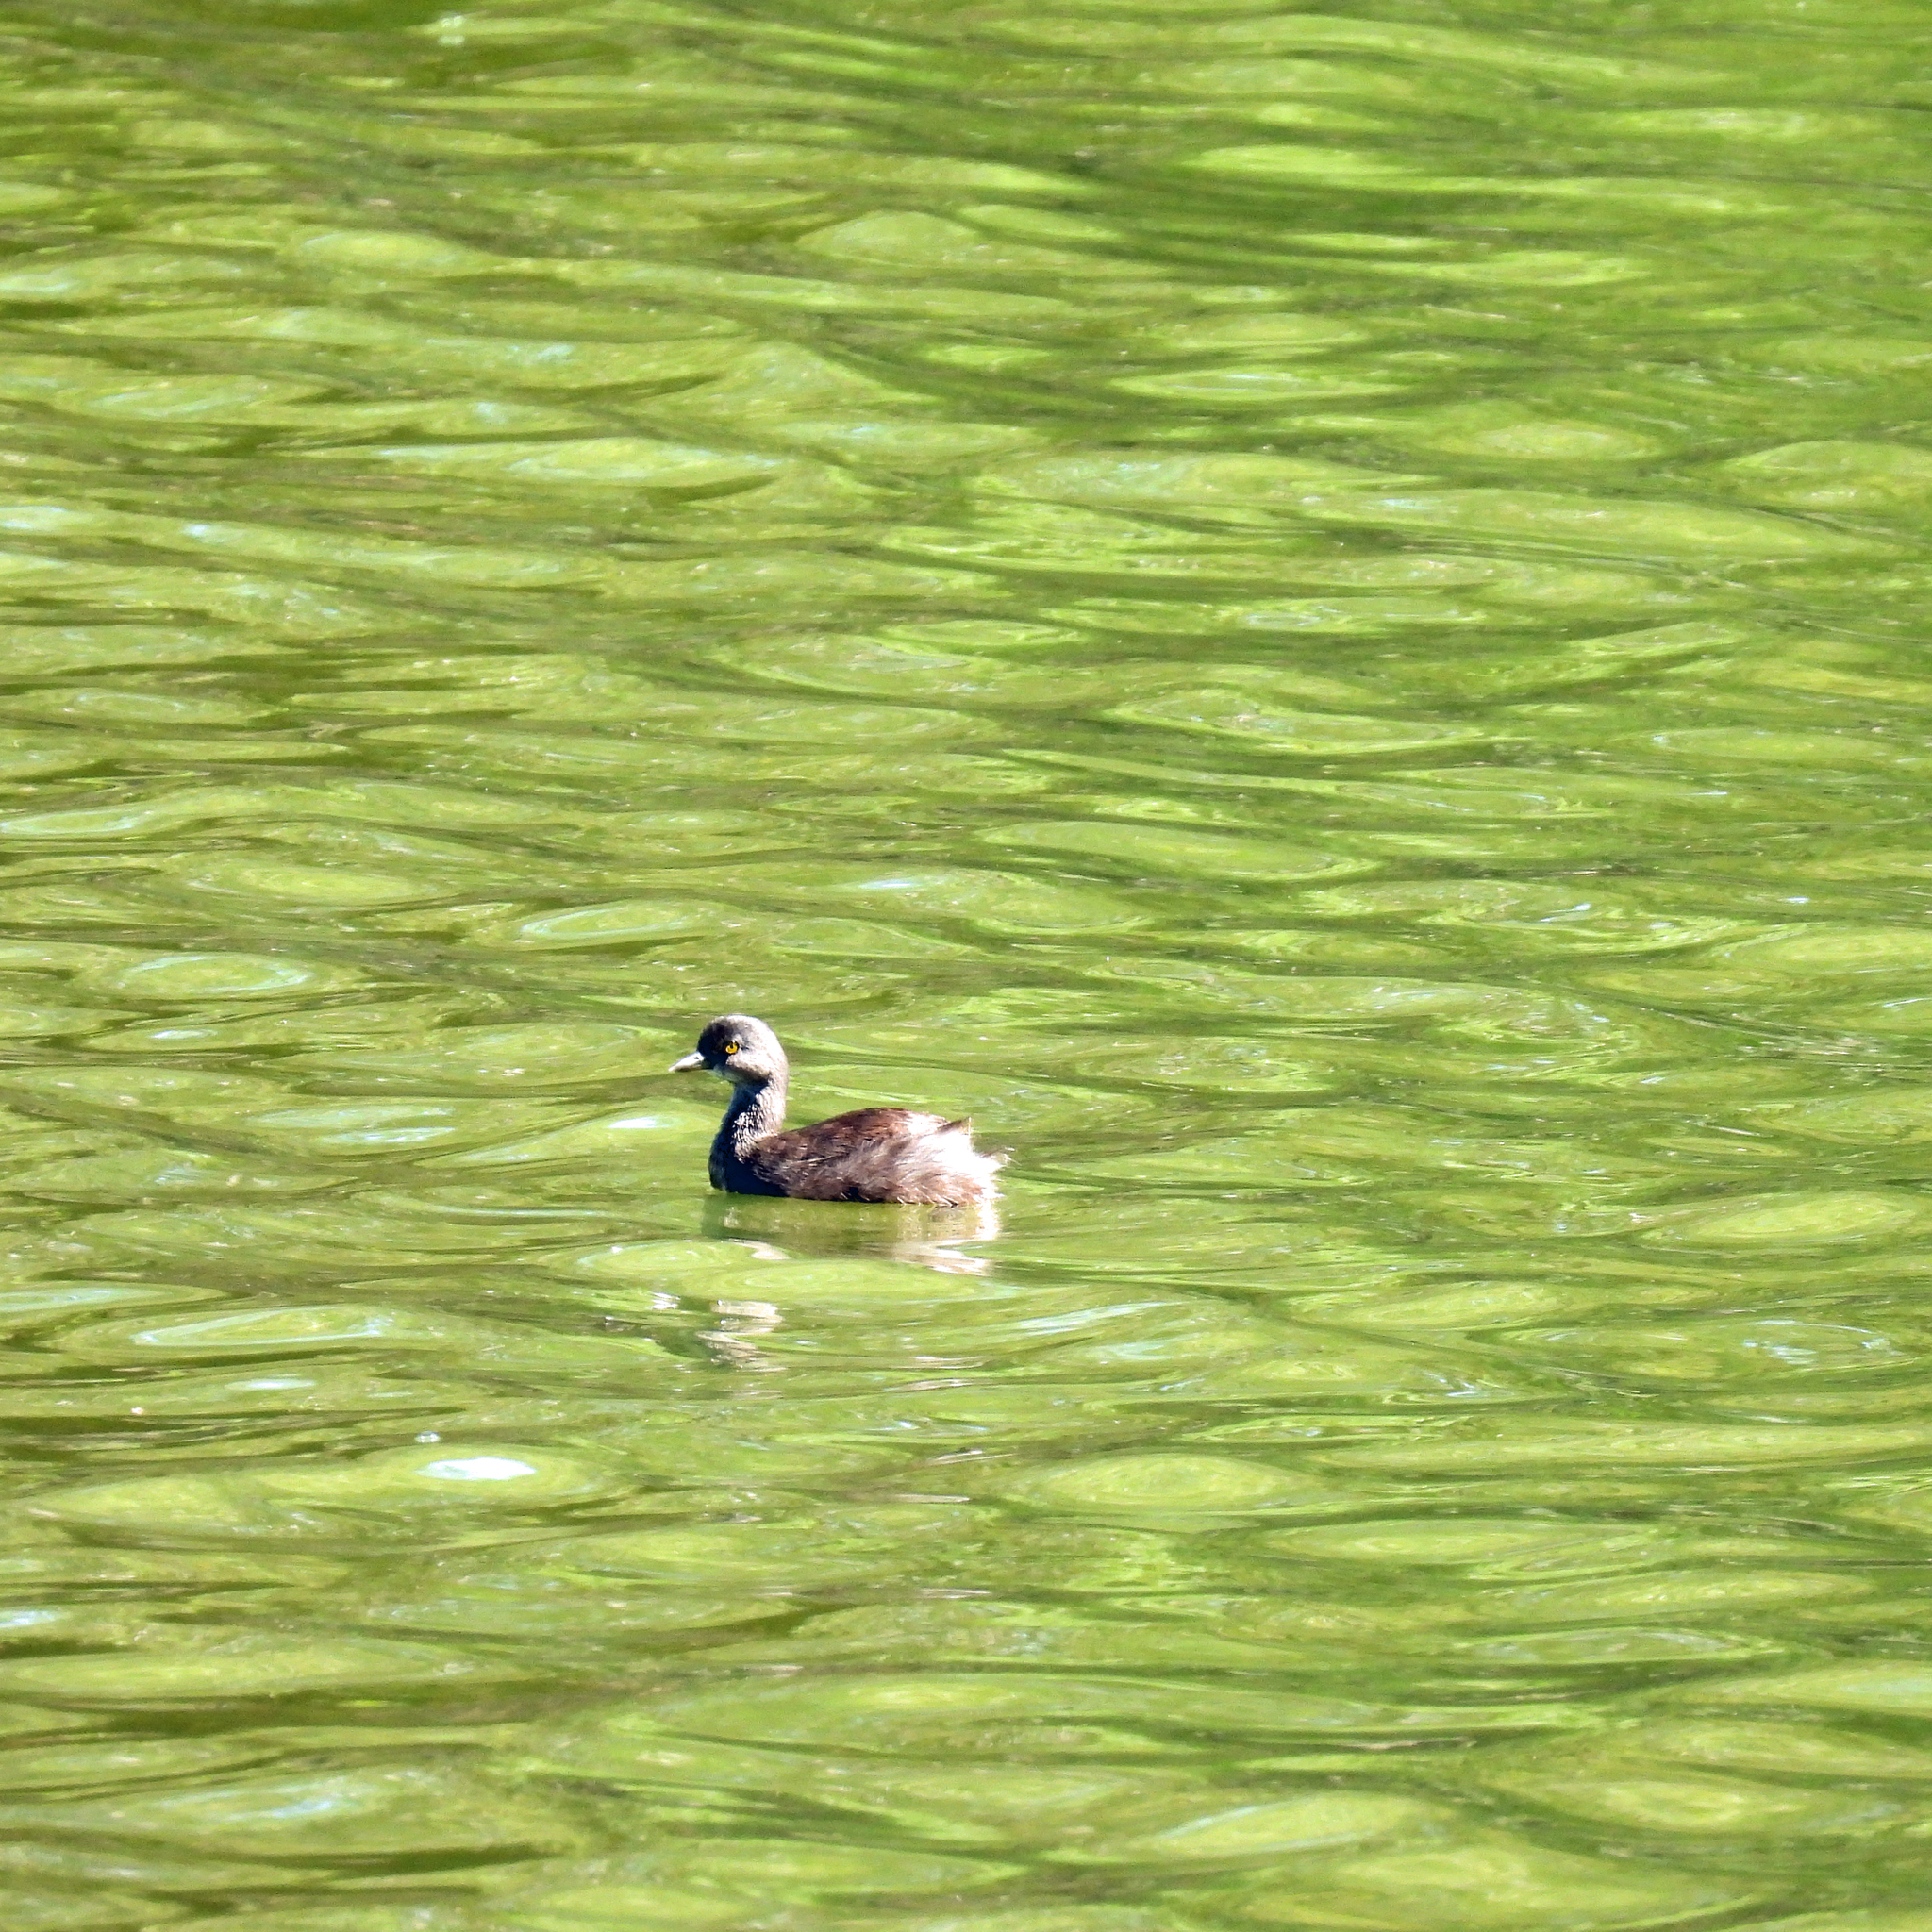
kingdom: Animalia
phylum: Chordata
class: Aves
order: Podicipediformes
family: Podicipedidae
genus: Tachybaptus
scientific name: Tachybaptus dominicus
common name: Least grebe
